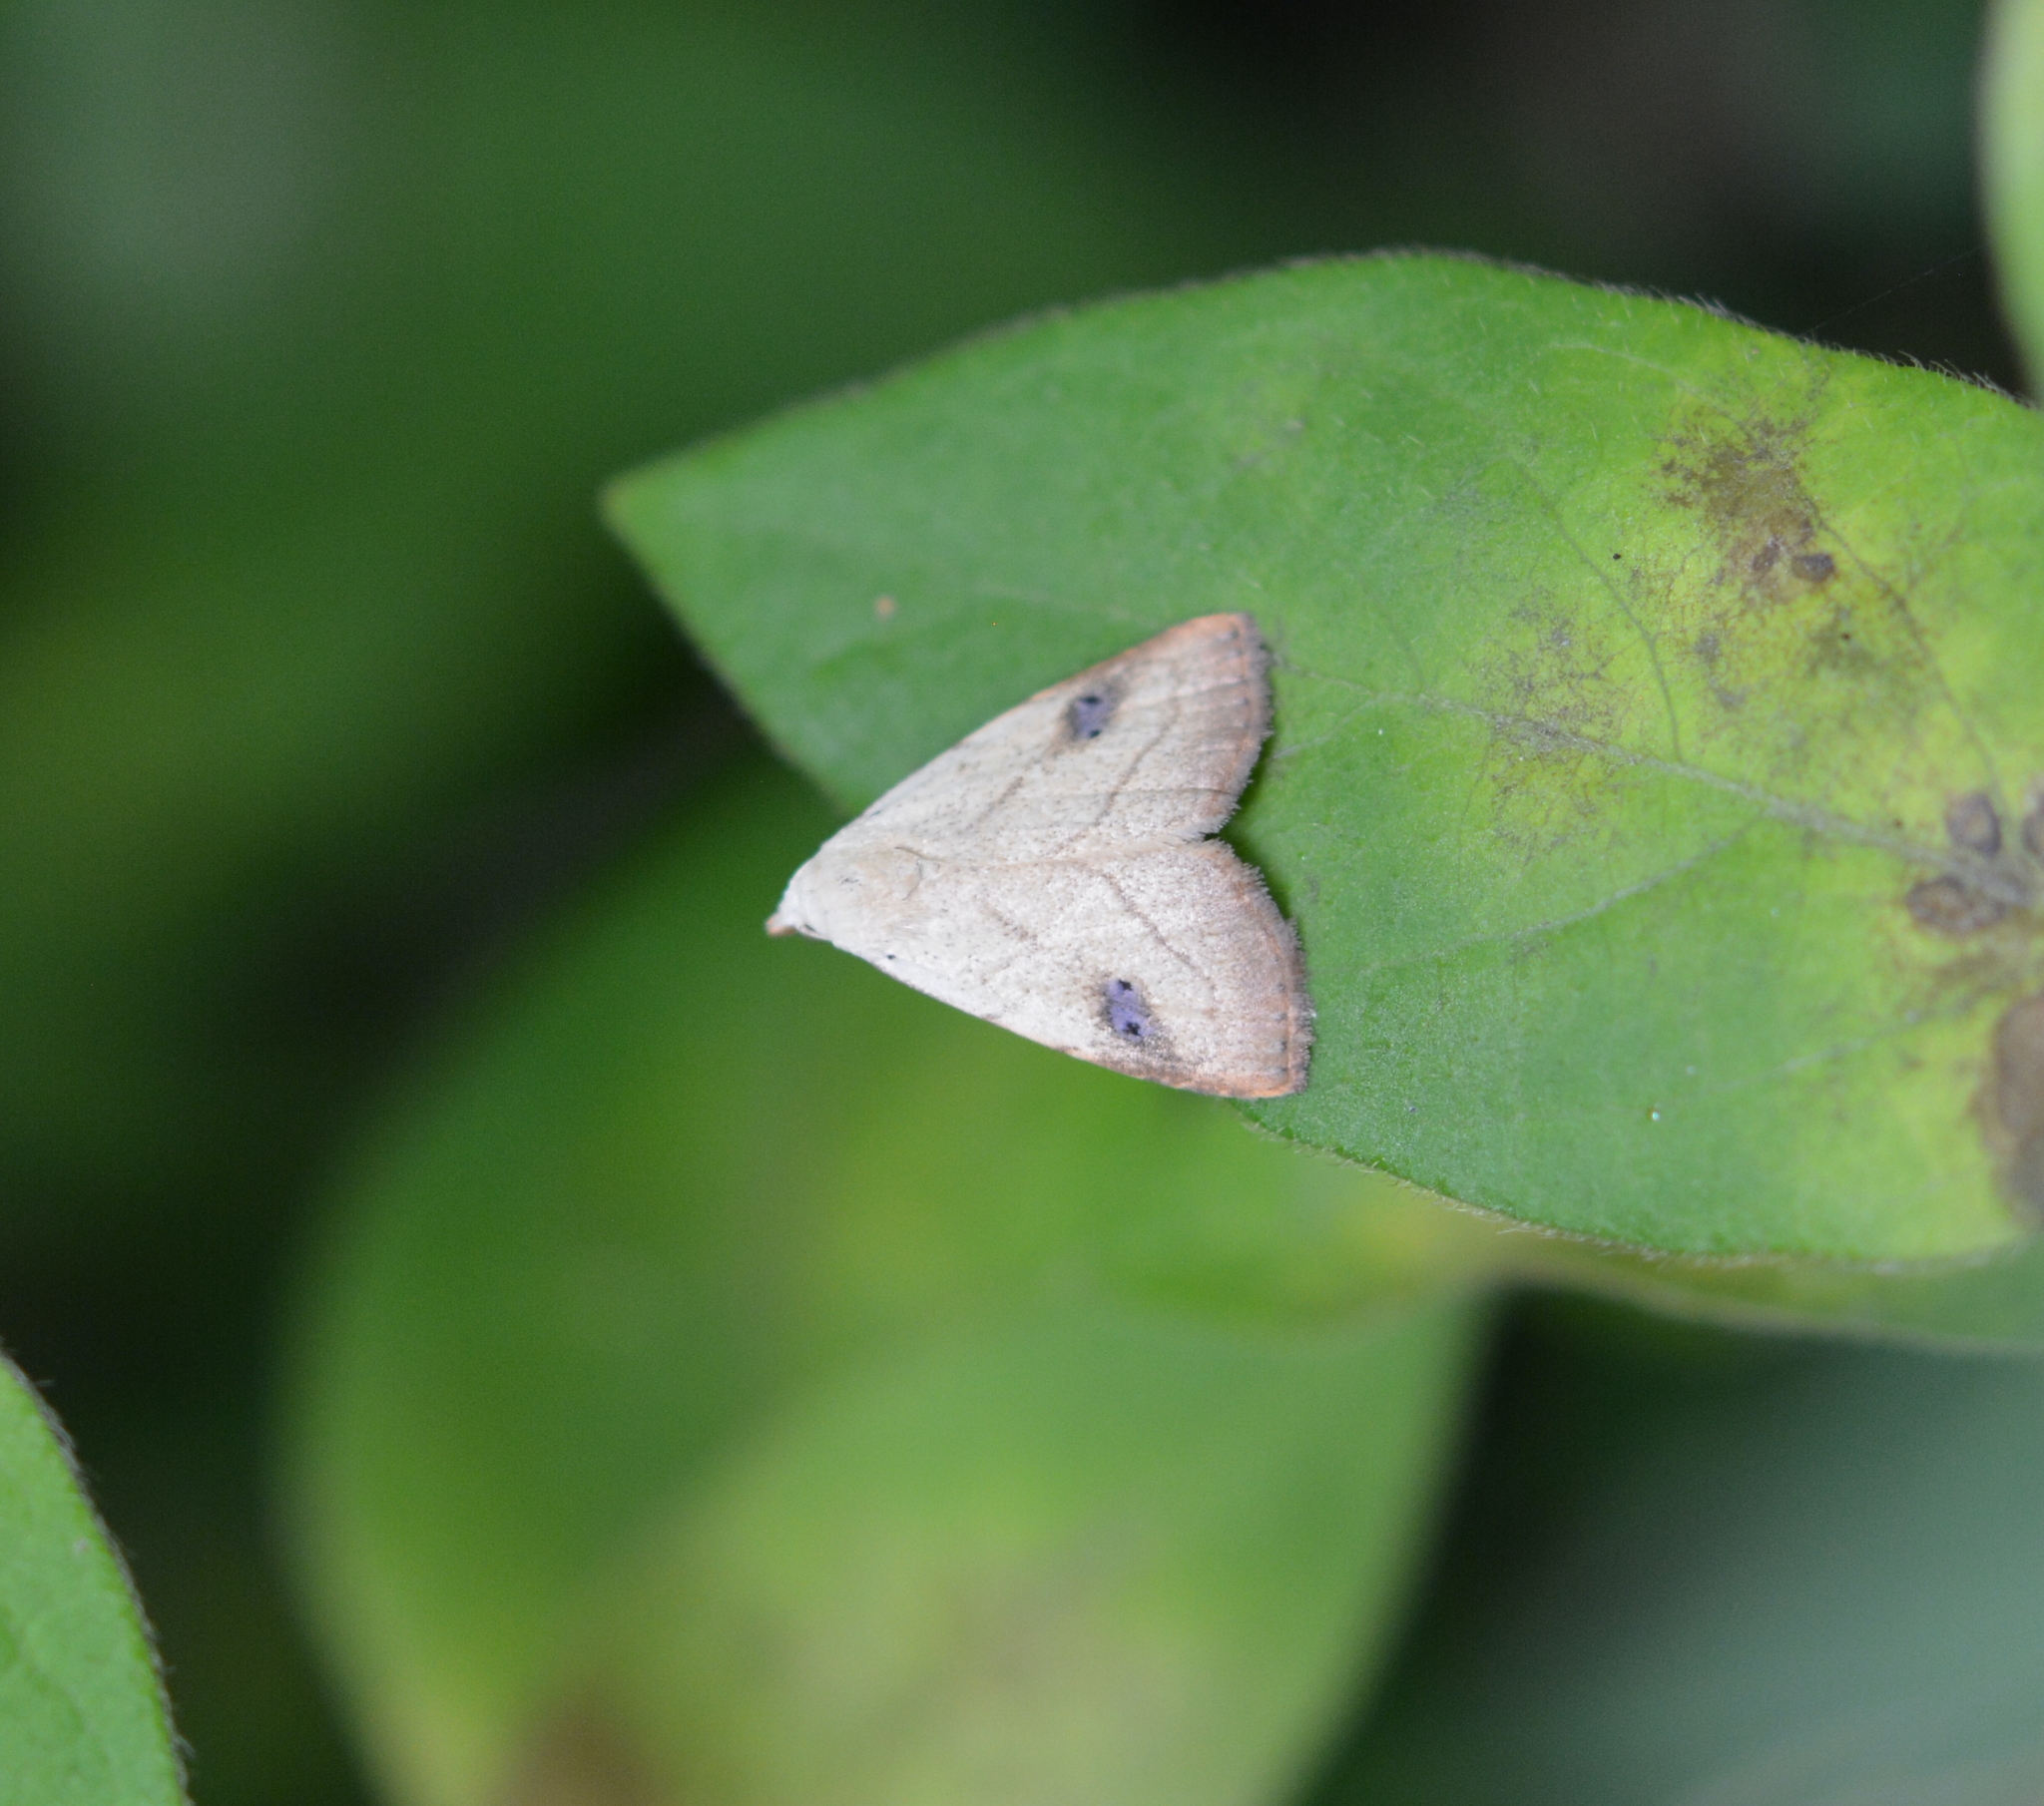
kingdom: Animalia
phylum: Arthropoda
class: Insecta
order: Lepidoptera
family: Erebidae
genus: Rivula
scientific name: Rivula propinqualis
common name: Spotted grass moth
